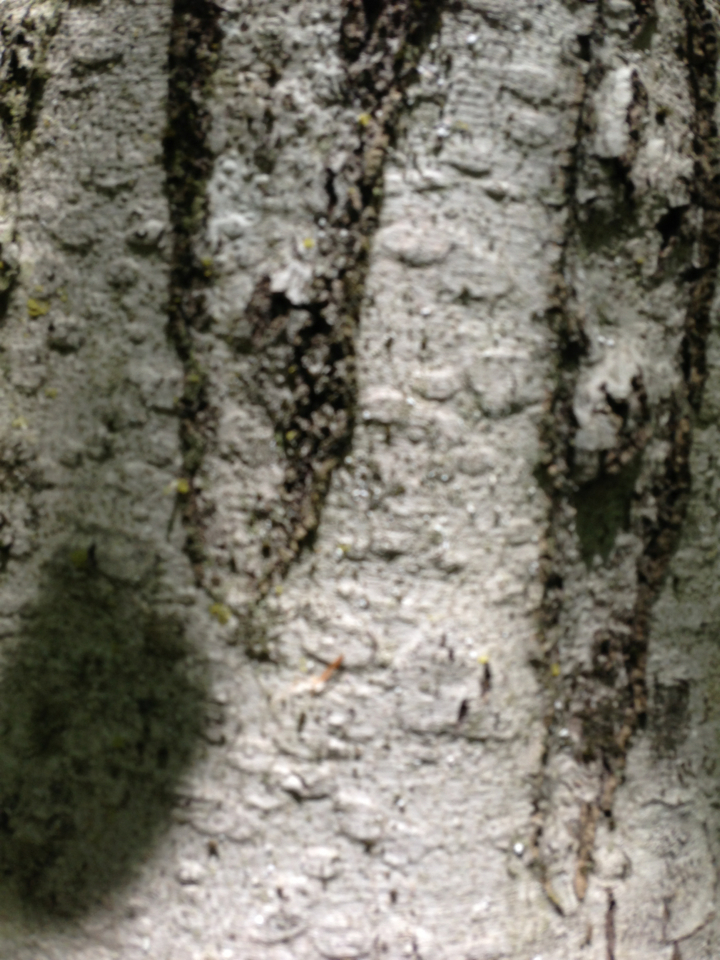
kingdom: Animalia
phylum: Arthropoda
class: Insecta
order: Hemiptera
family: Eriococcidae
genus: Cryptococcus
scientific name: Cryptococcus fagisuga
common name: Beech scale
